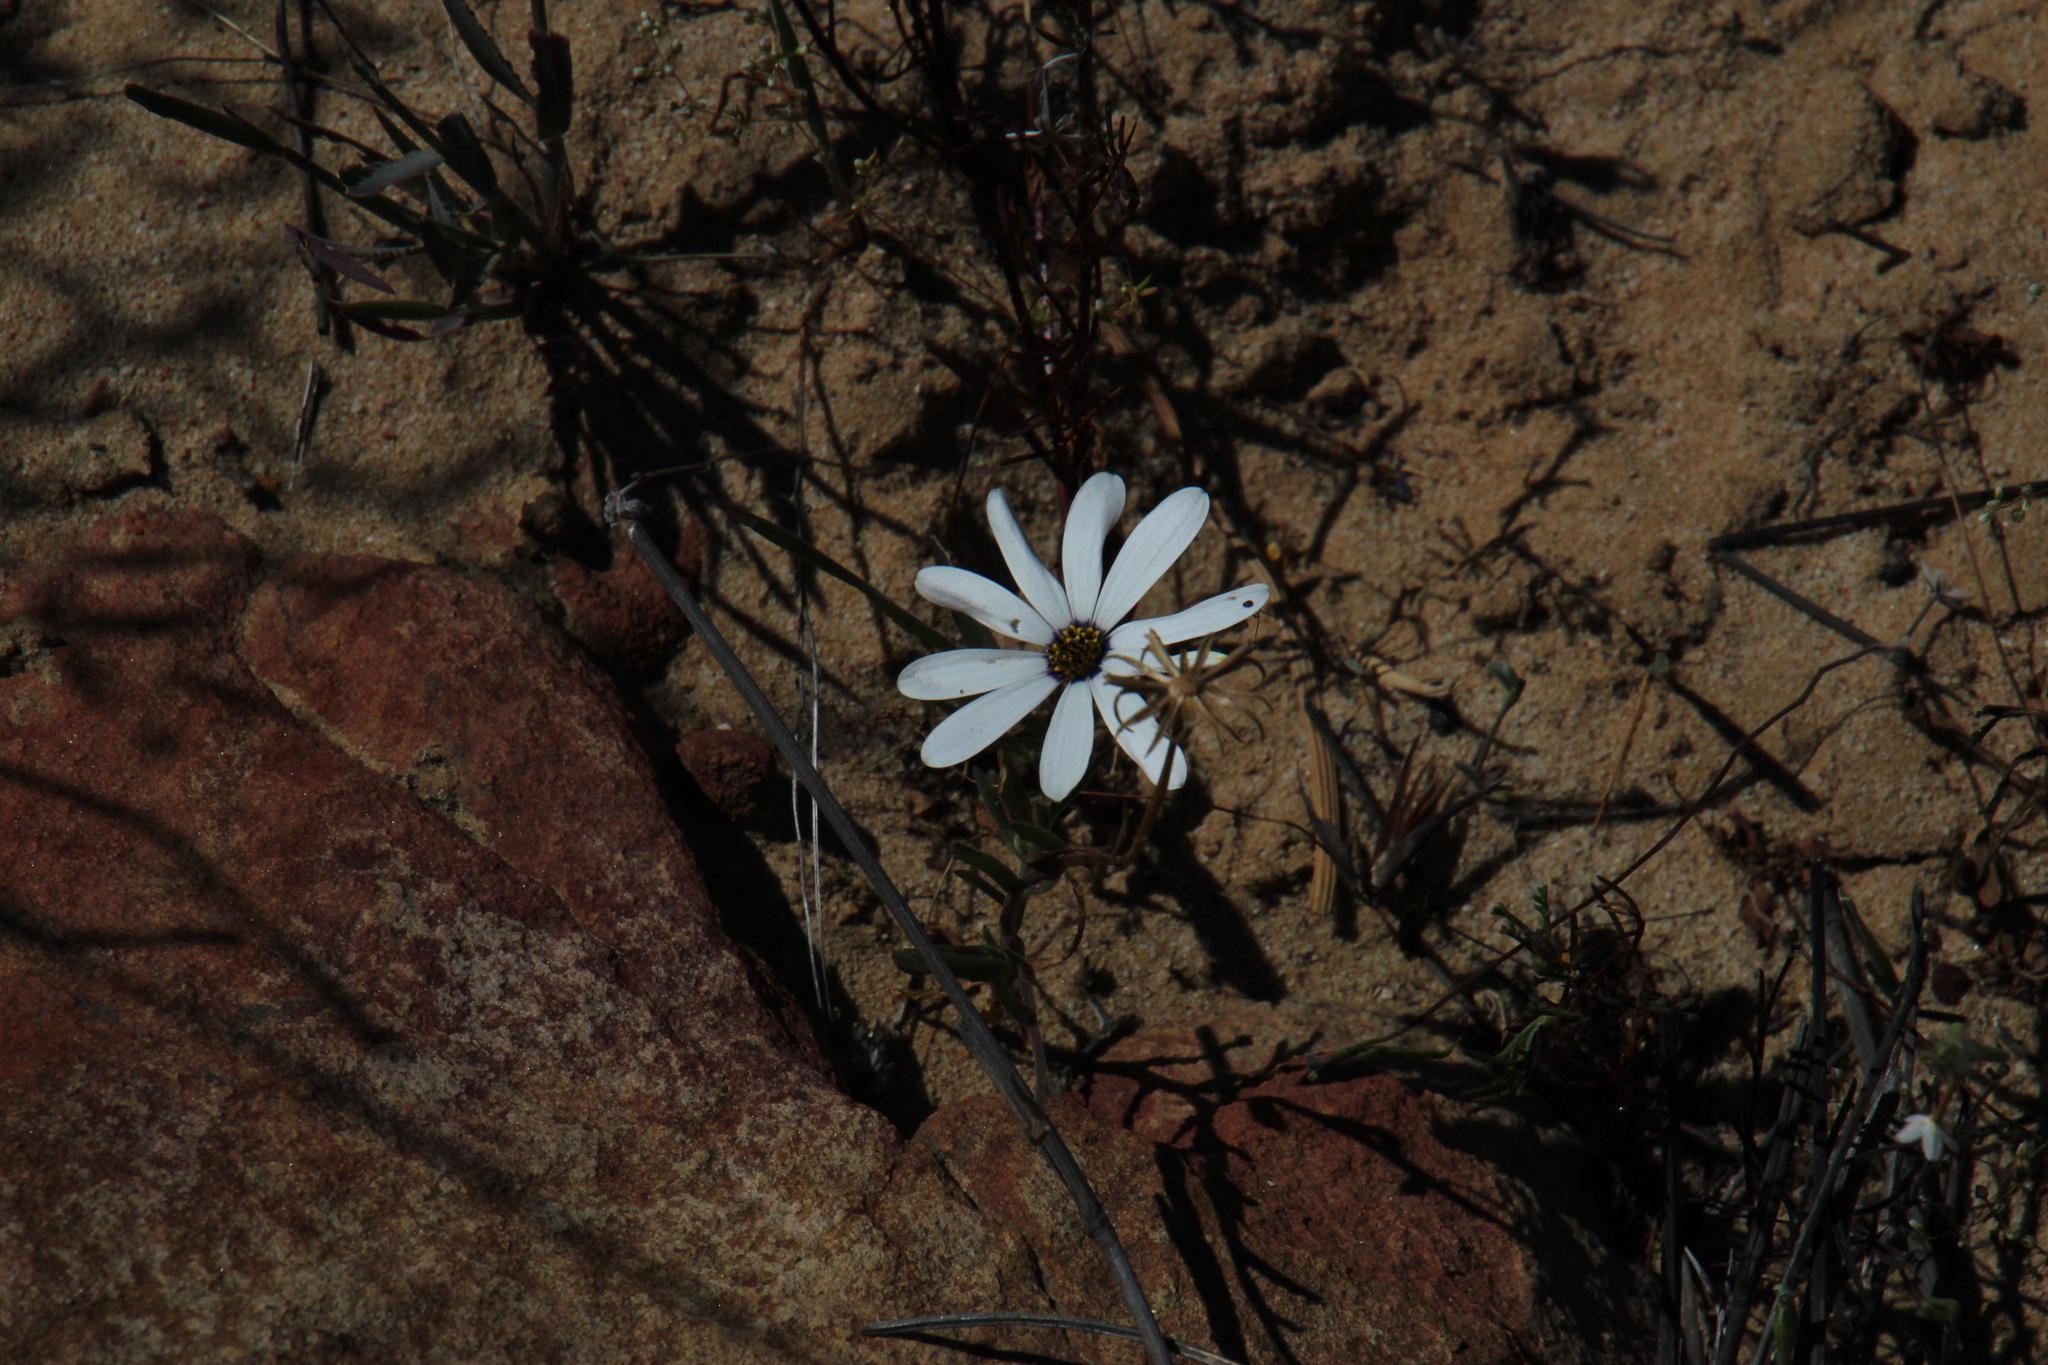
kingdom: Plantae
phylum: Tracheophyta
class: Magnoliopsida
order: Asterales
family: Asteraceae
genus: Dimorphotheca
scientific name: Dimorphotheca pluvialis
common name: Weather prophet
